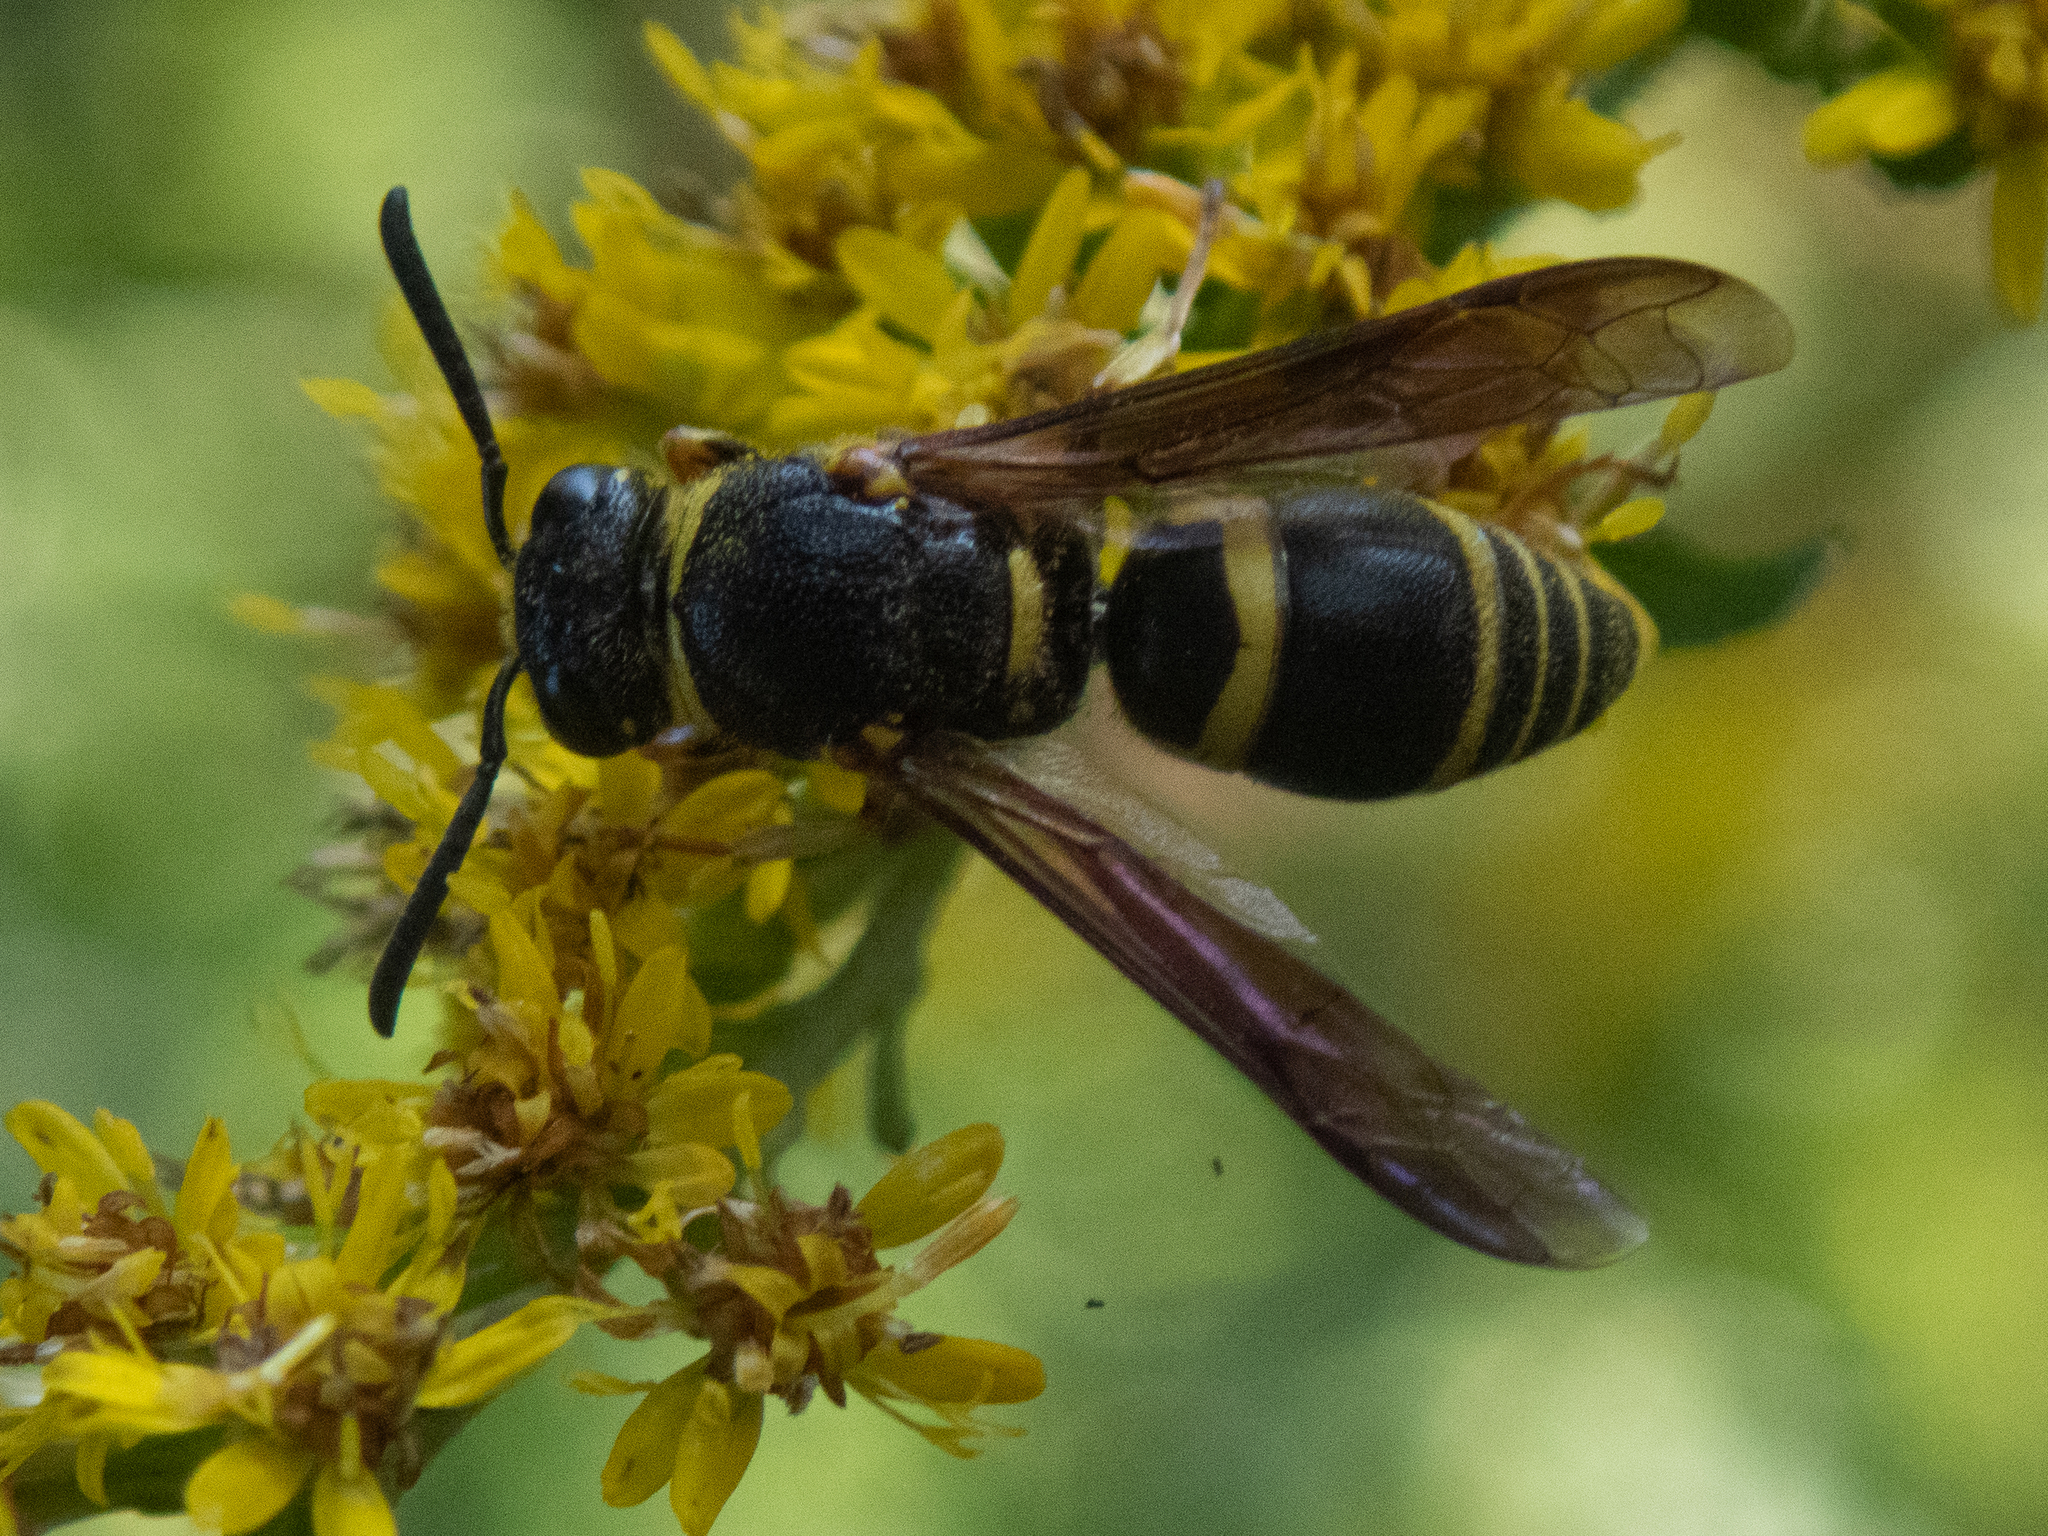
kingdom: Animalia
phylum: Arthropoda
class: Insecta
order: Hymenoptera
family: Eumenidae
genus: Euodynerus
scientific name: Euodynerus foraminatus
